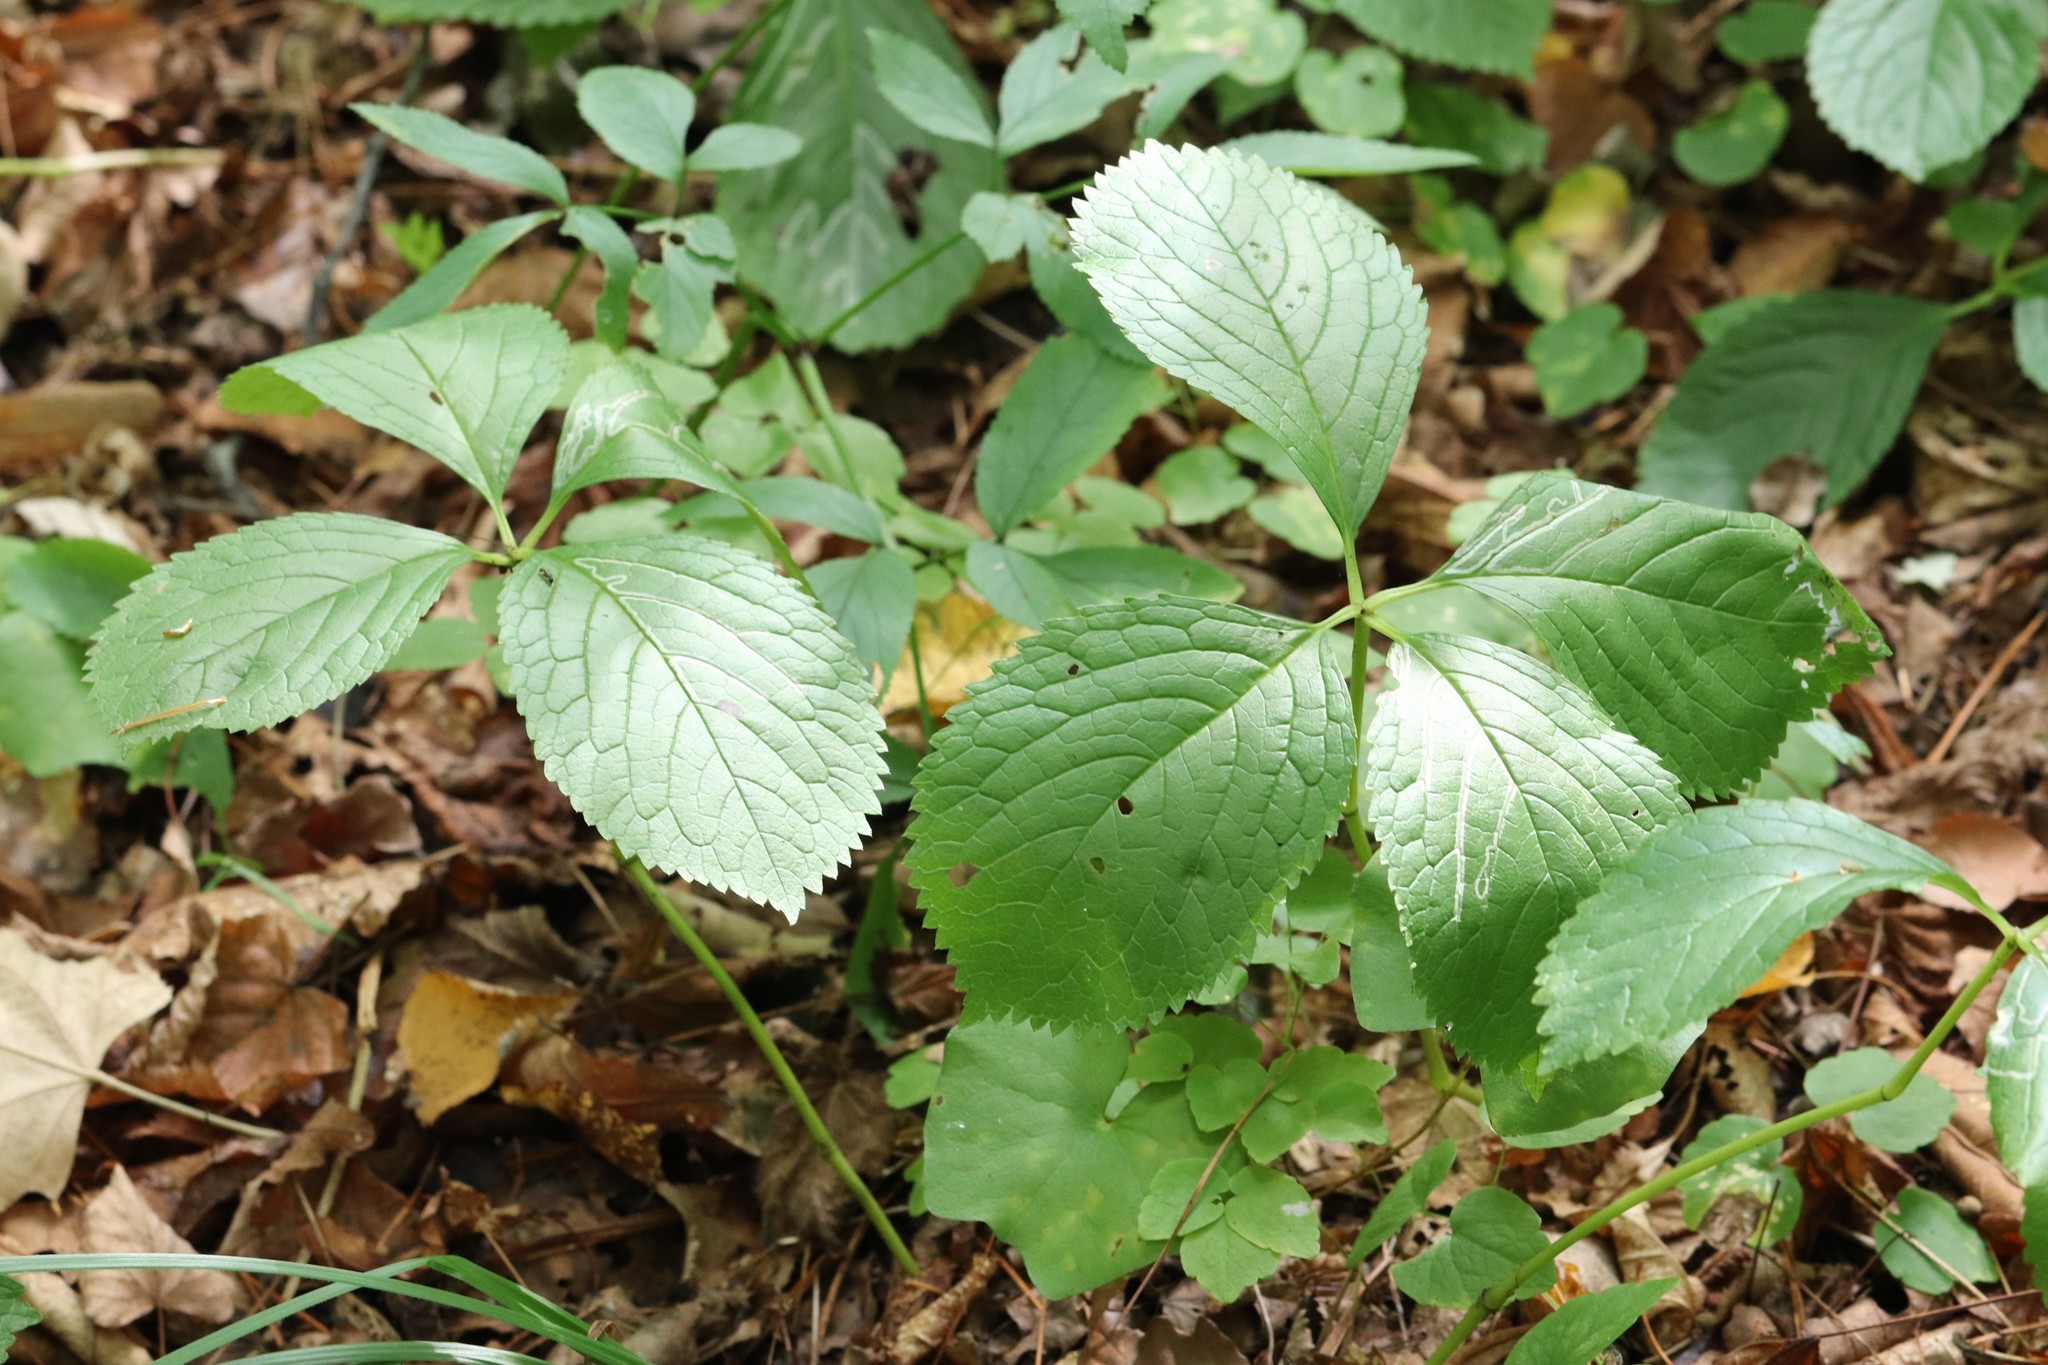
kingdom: Plantae
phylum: Tracheophyta
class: Magnoliopsida
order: Chloranthales
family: Chloranthaceae
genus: Chloranthus
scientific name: Chloranthus quadrifolius
